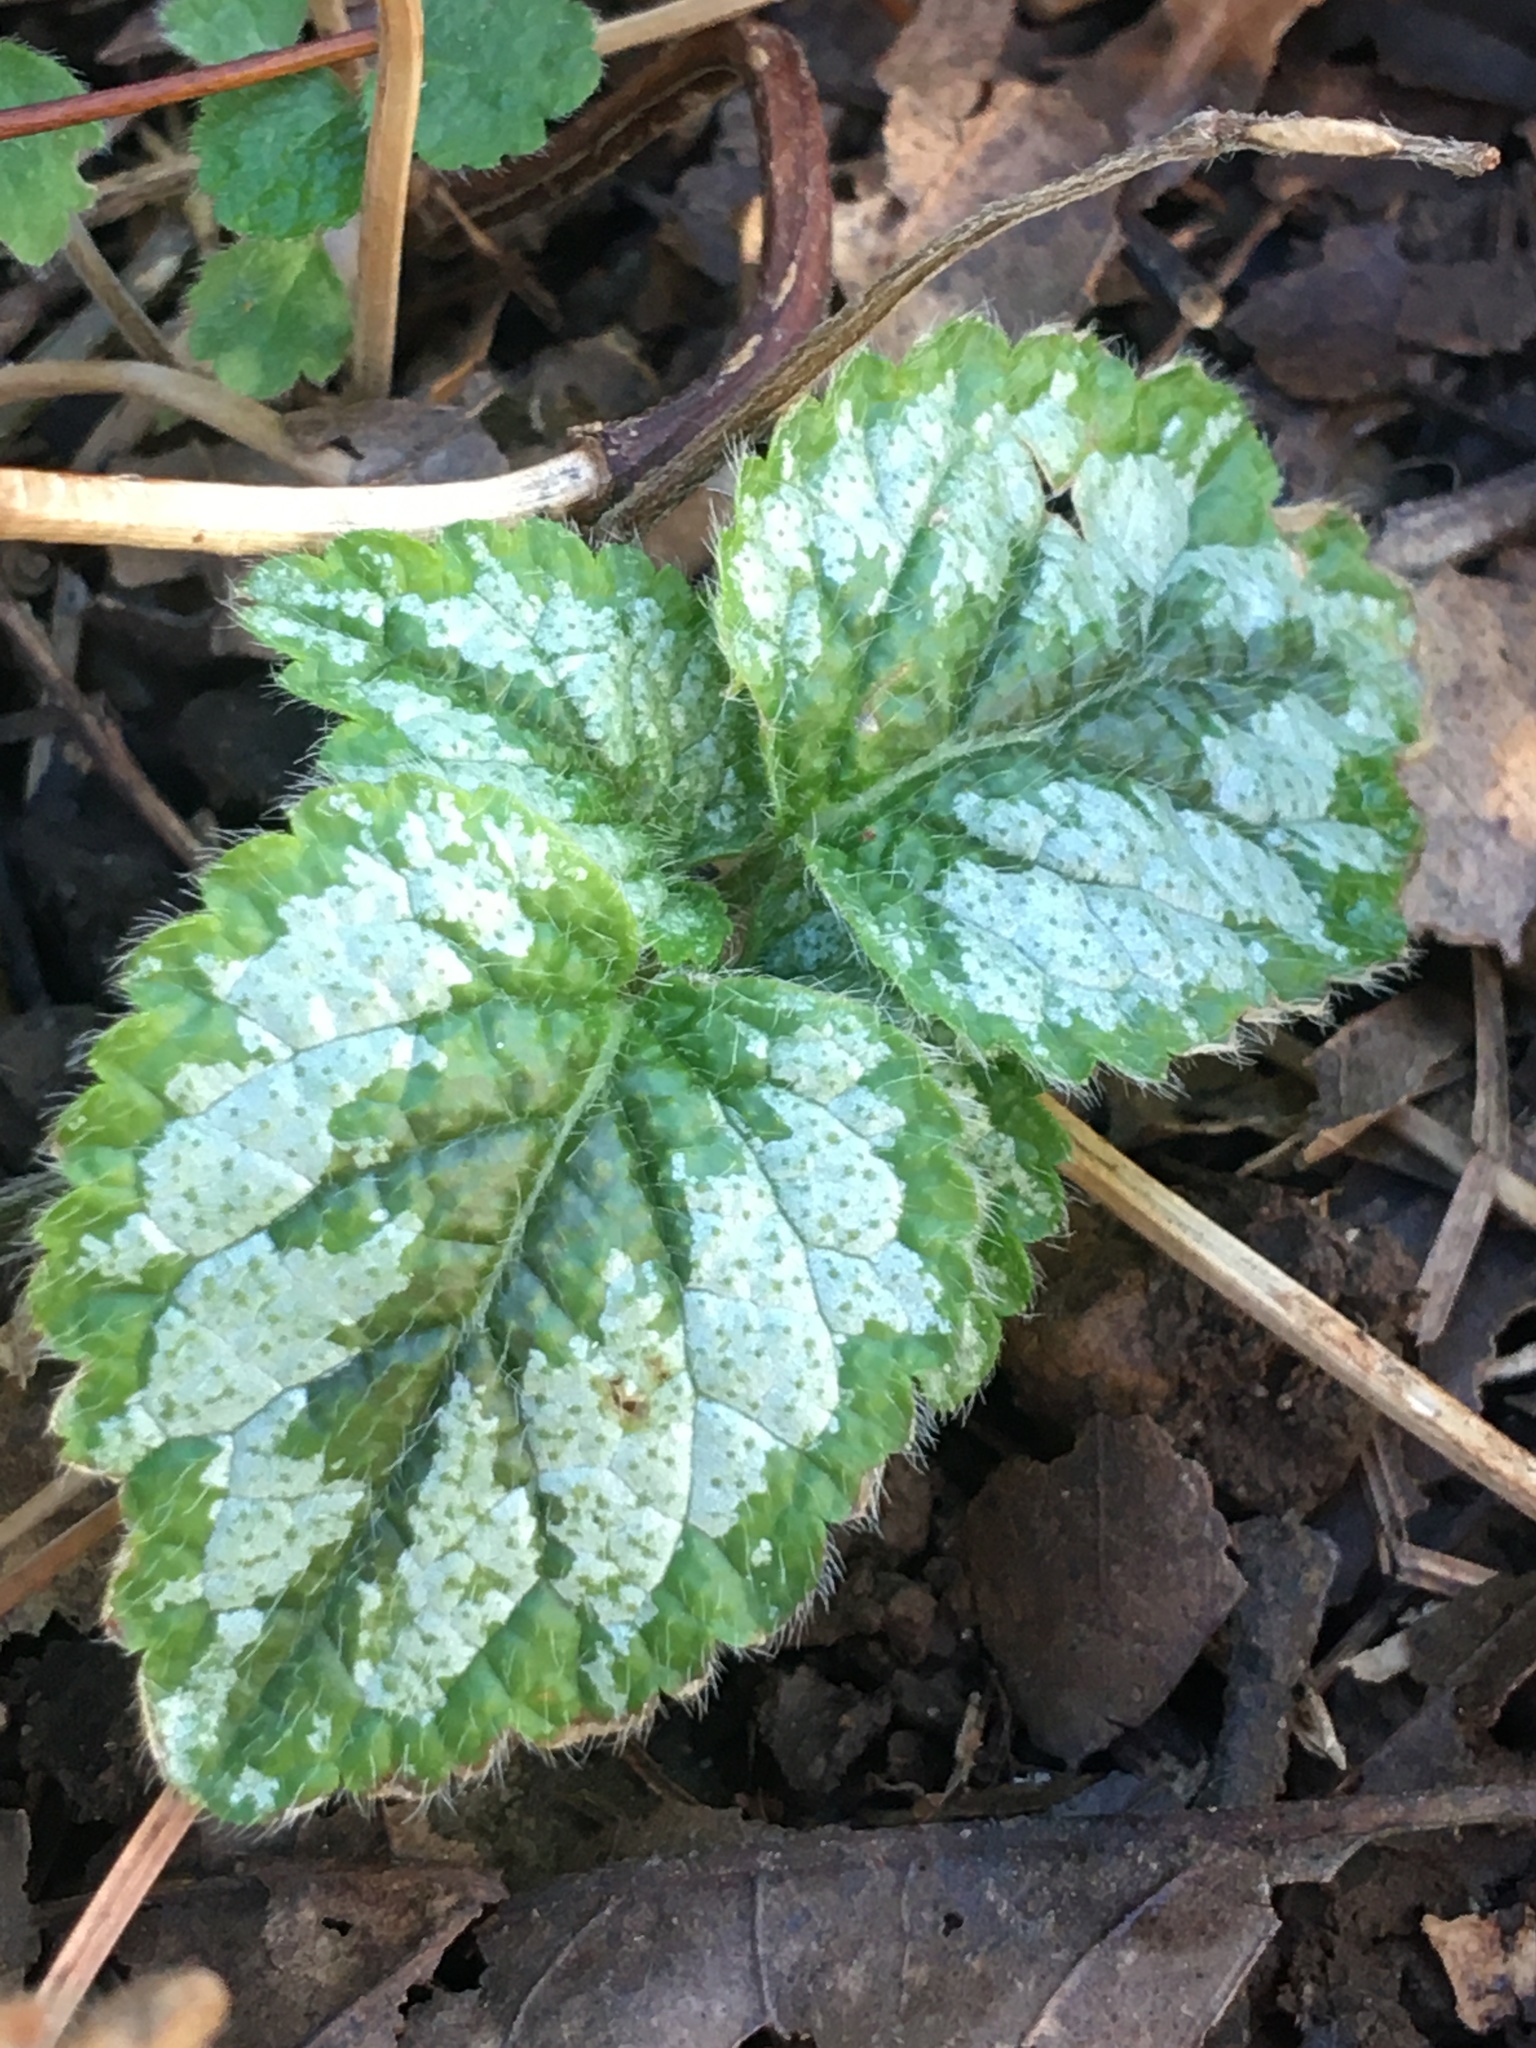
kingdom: Plantae
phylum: Tracheophyta
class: Magnoliopsida
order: Lamiales
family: Lamiaceae
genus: Lamium
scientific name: Lamium galeobdolon
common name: Yellow archangel
